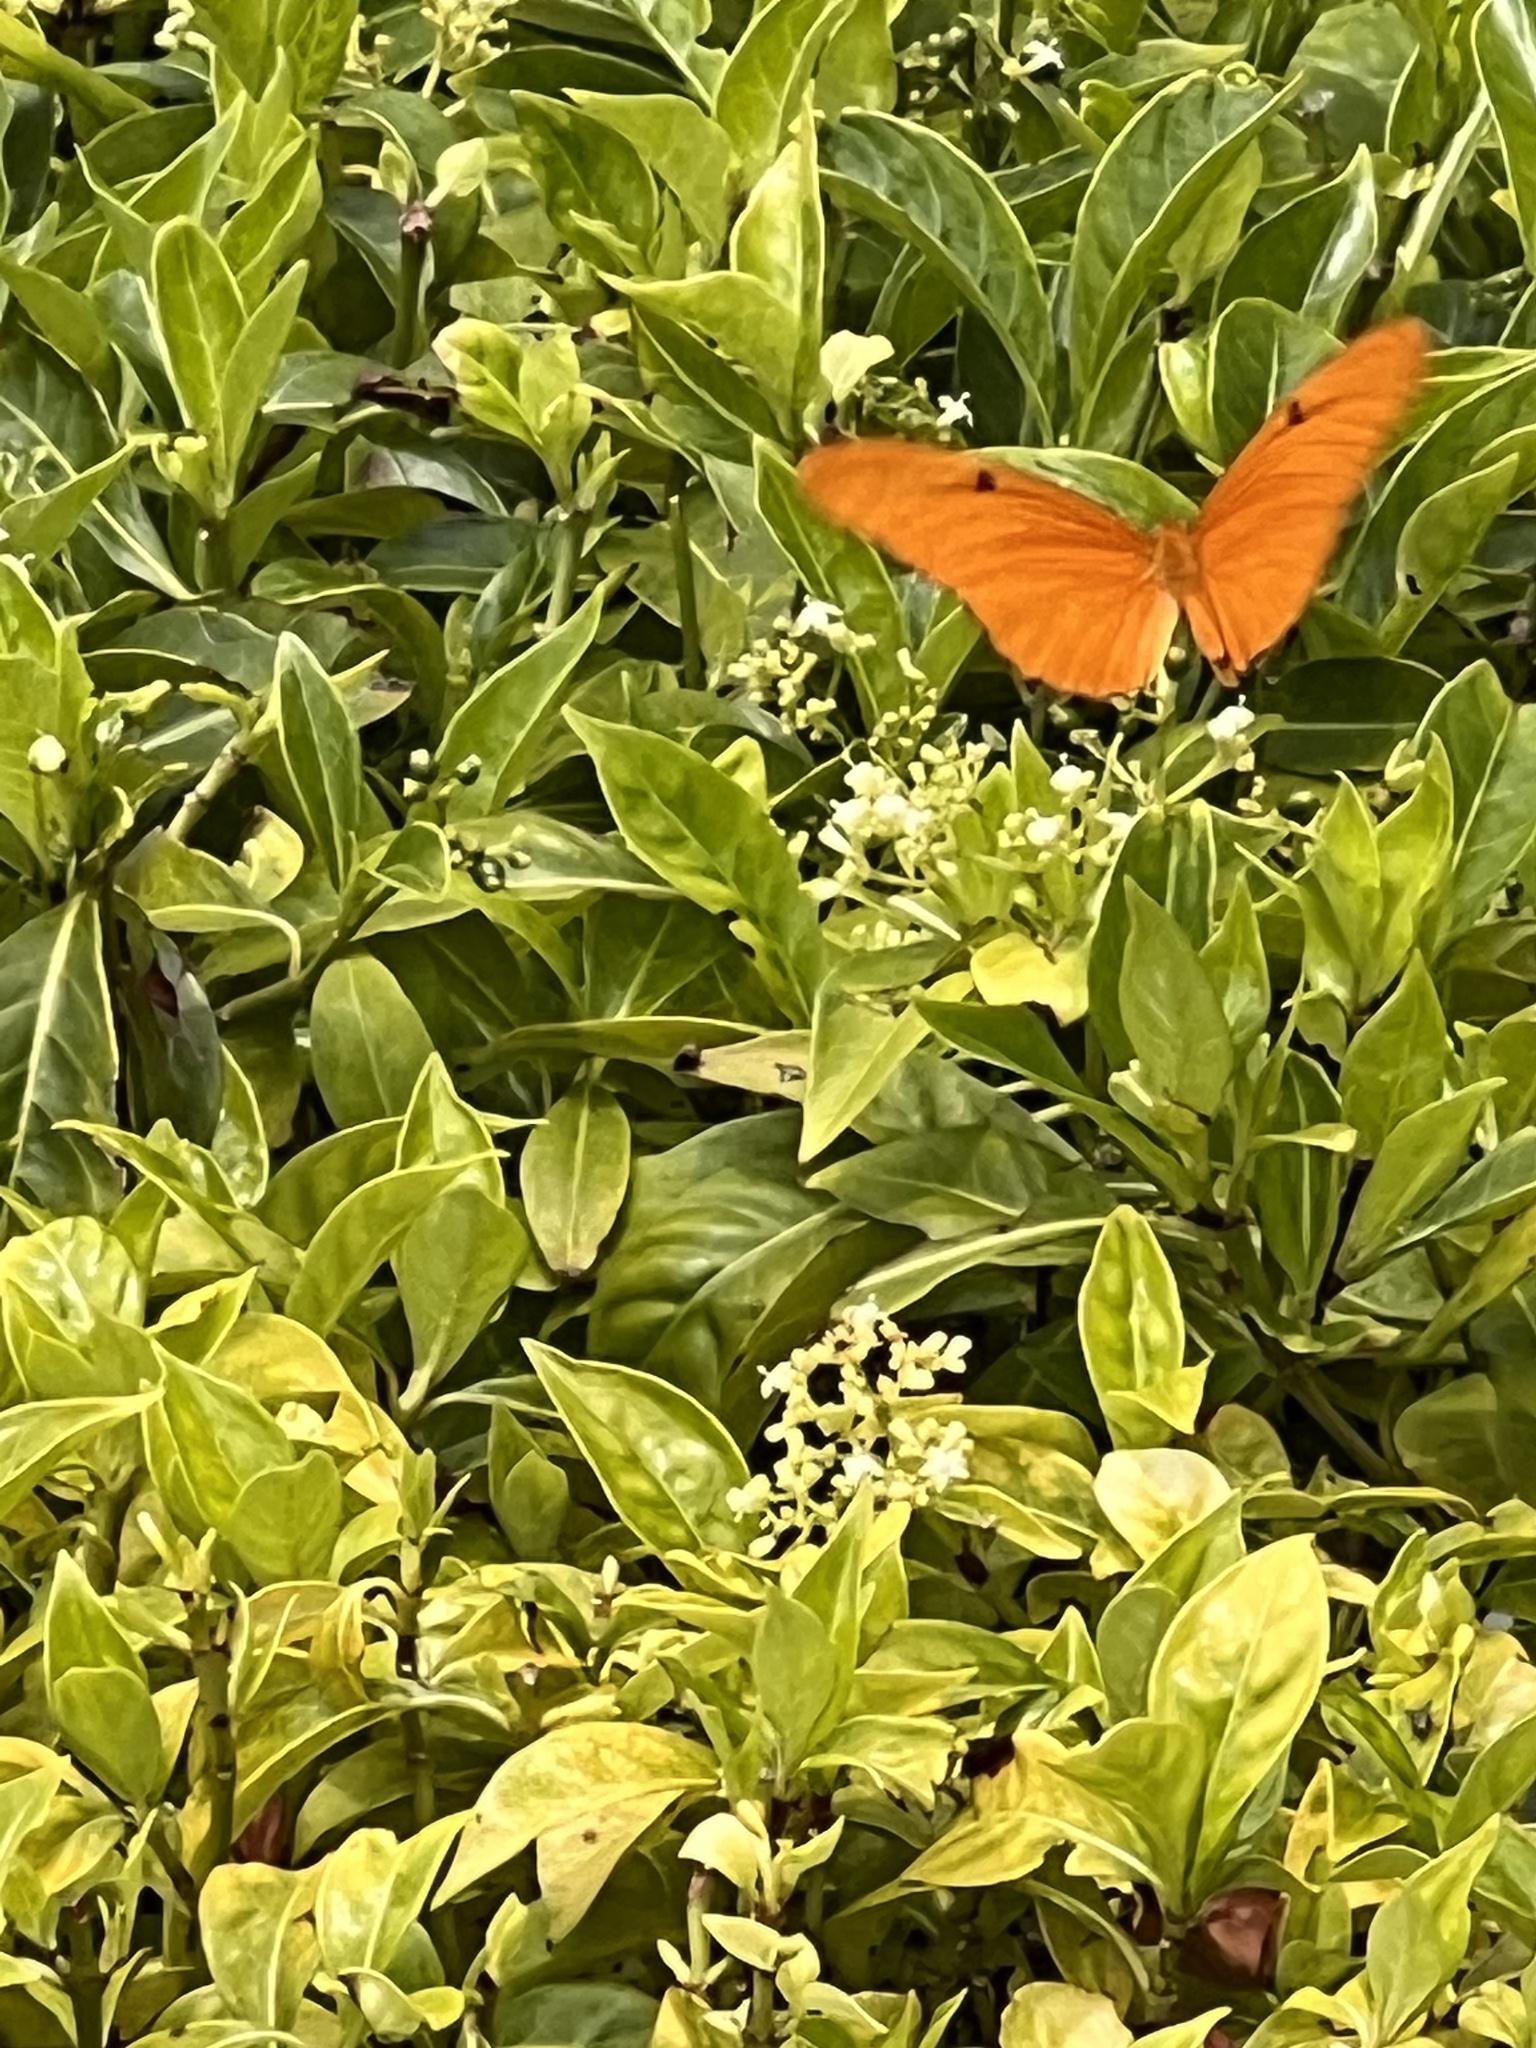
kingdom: Animalia
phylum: Arthropoda
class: Insecta
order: Lepidoptera
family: Nymphalidae
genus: Dryas
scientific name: Dryas iulia
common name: Flambeau
